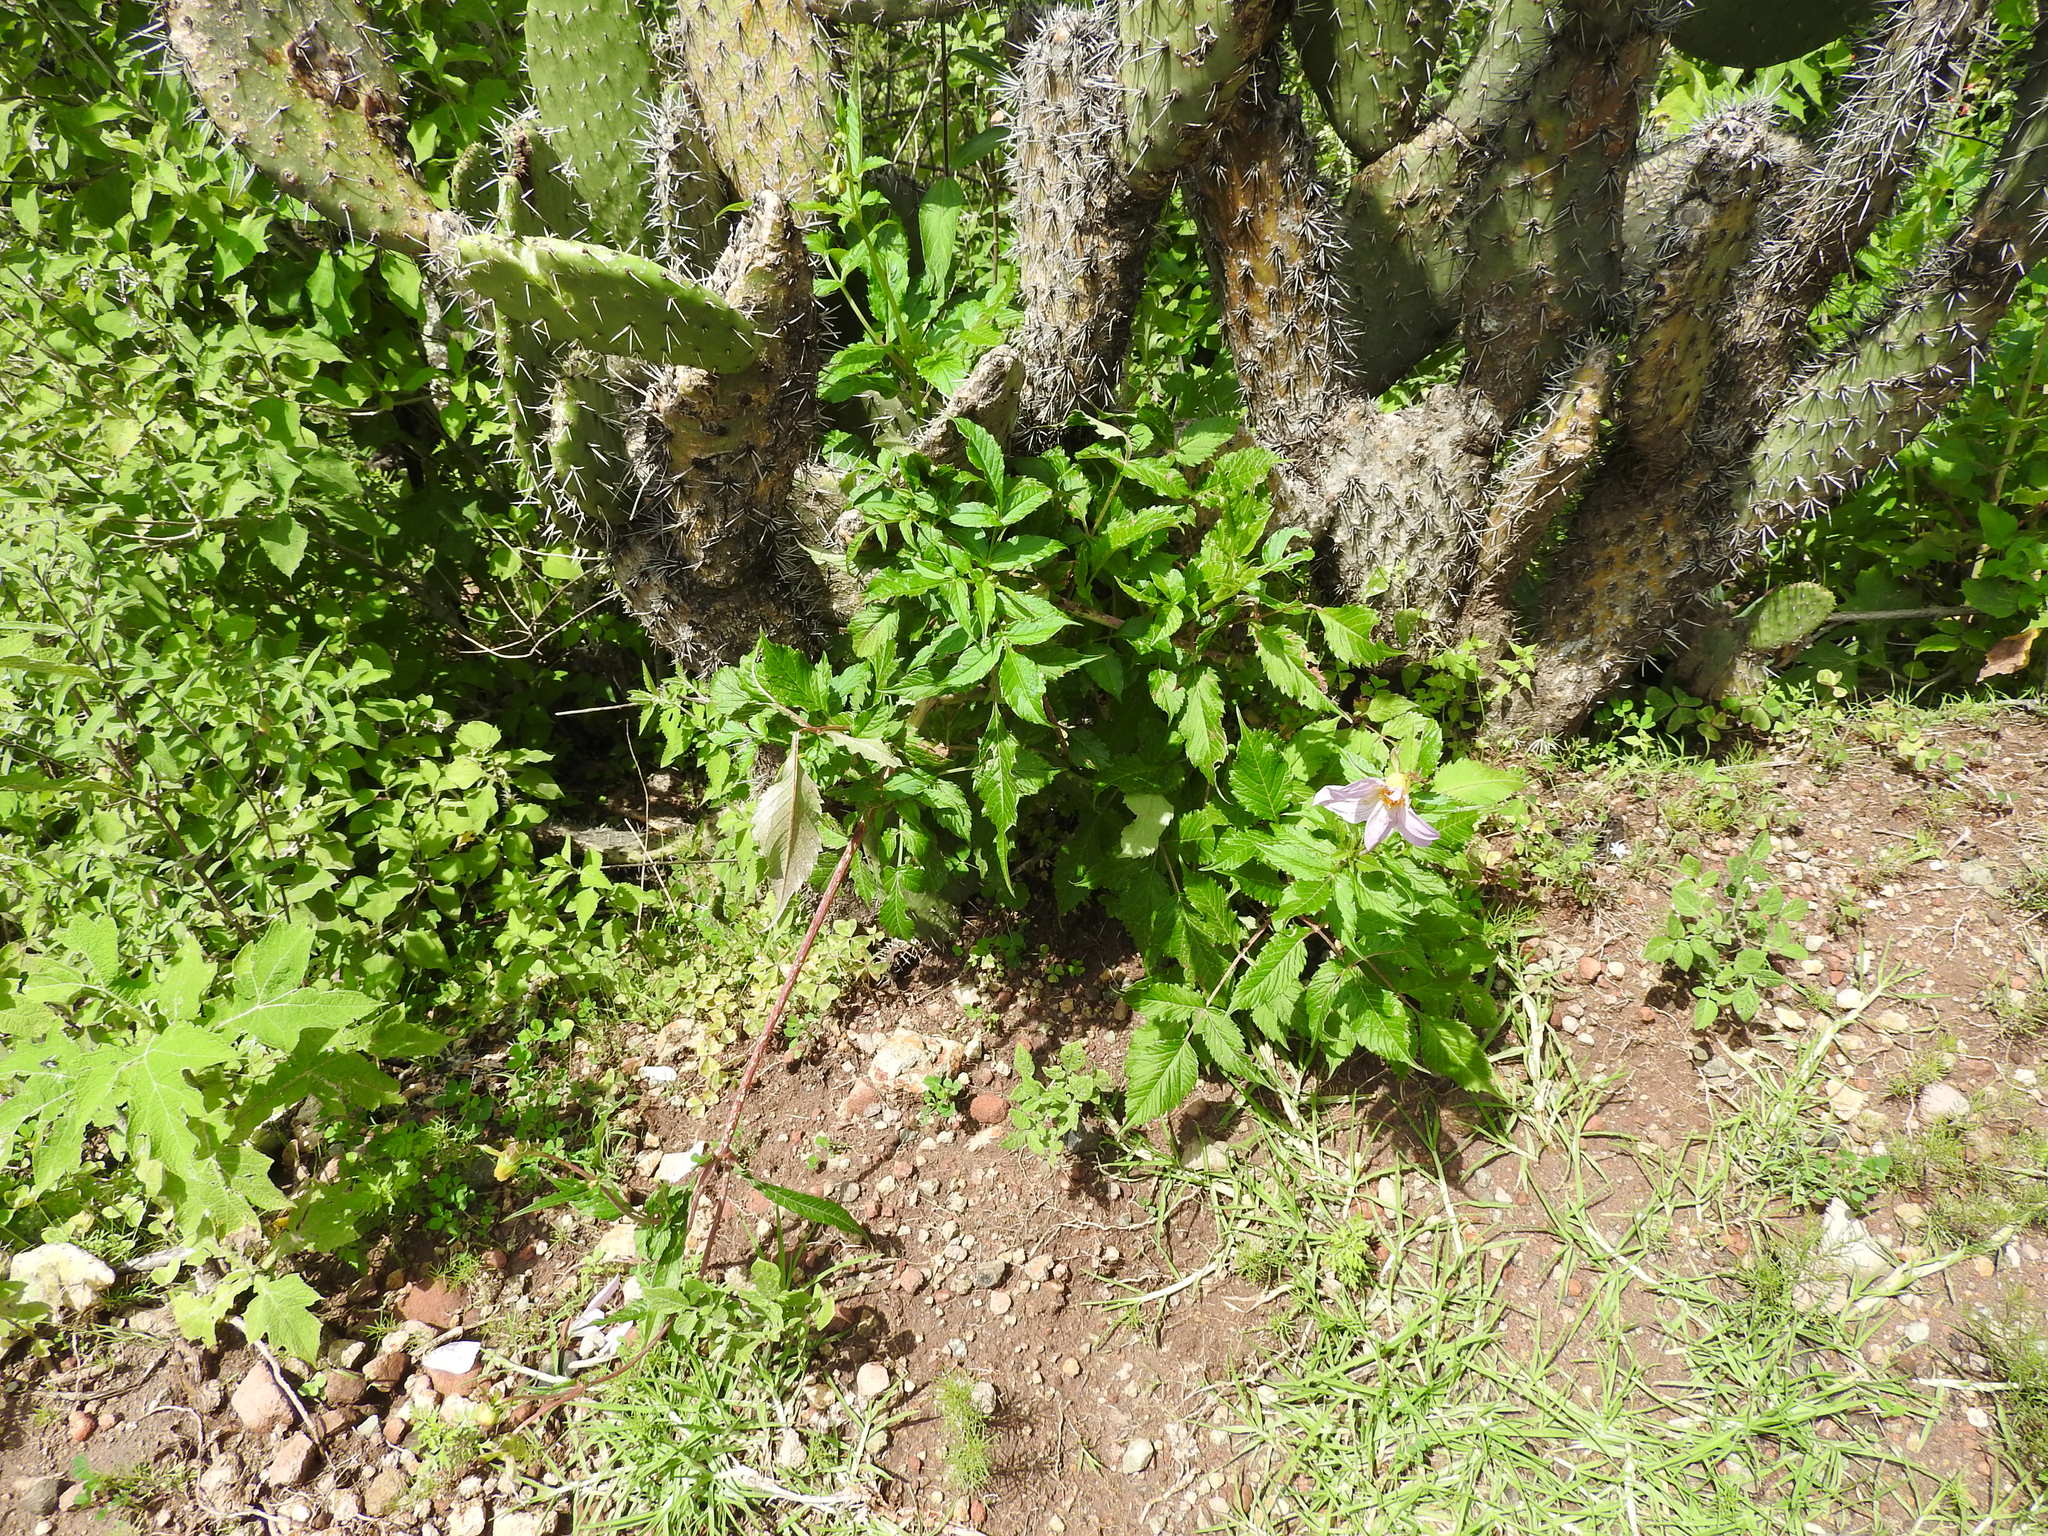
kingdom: Plantae
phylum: Tracheophyta
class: Magnoliopsida
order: Asterales
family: Asteraceae
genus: Dahlia
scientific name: Dahlia imperialis
